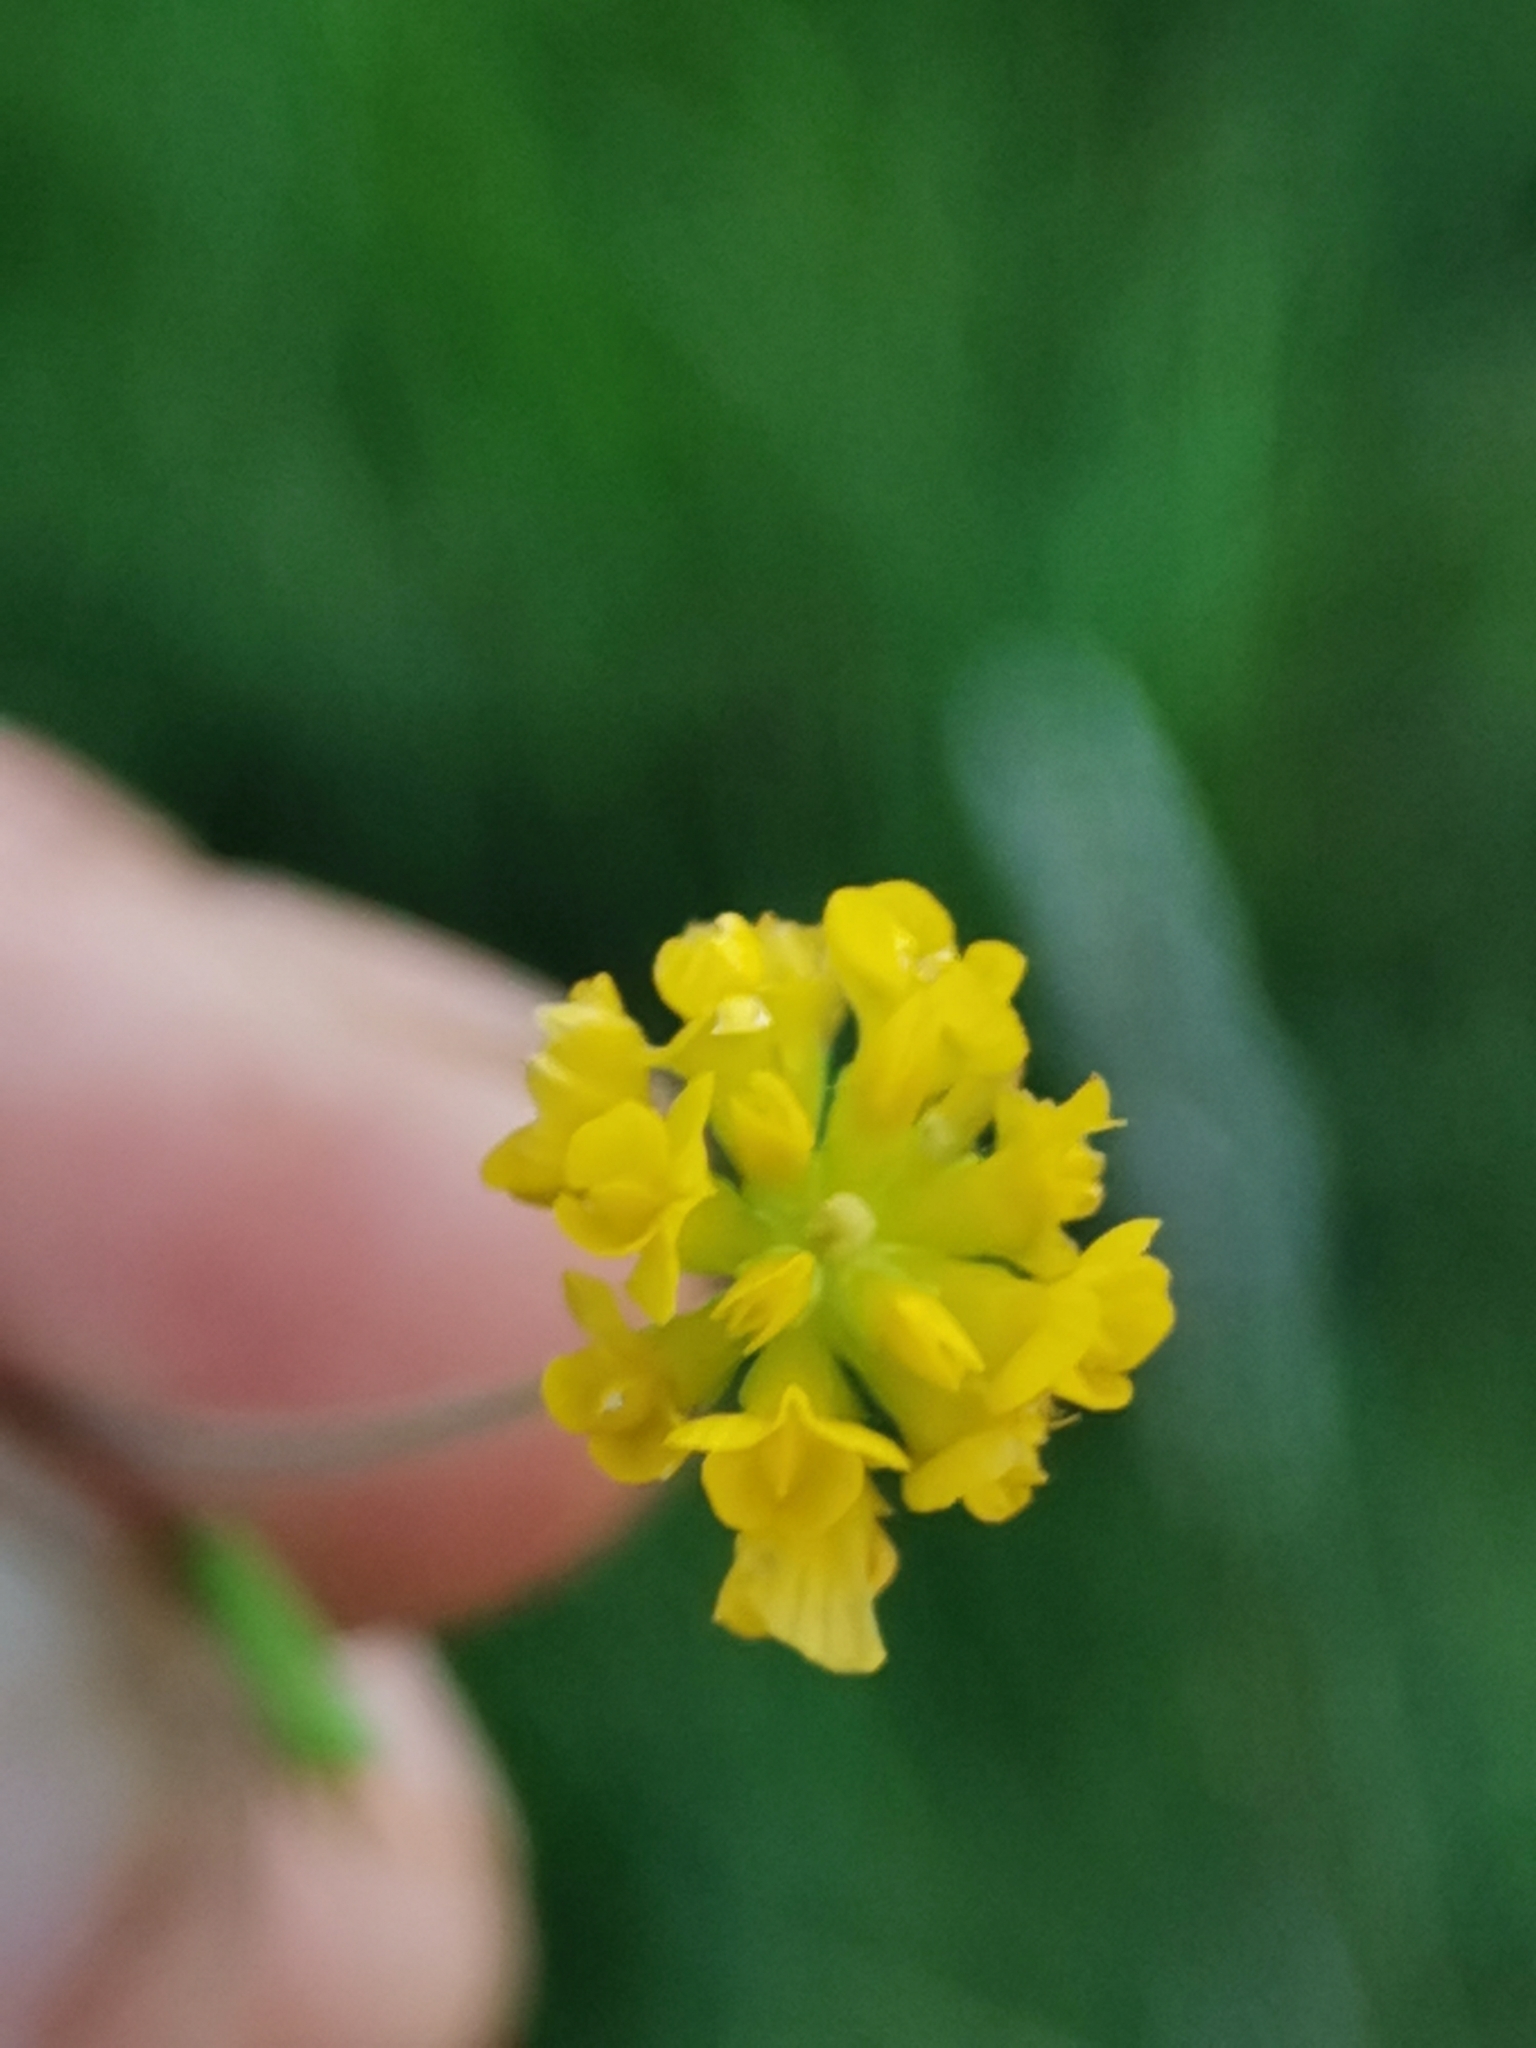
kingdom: Plantae
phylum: Tracheophyta
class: Magnoliopsida
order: Fabales
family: Fabaceae
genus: Trifolium
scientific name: Trifolium patens
